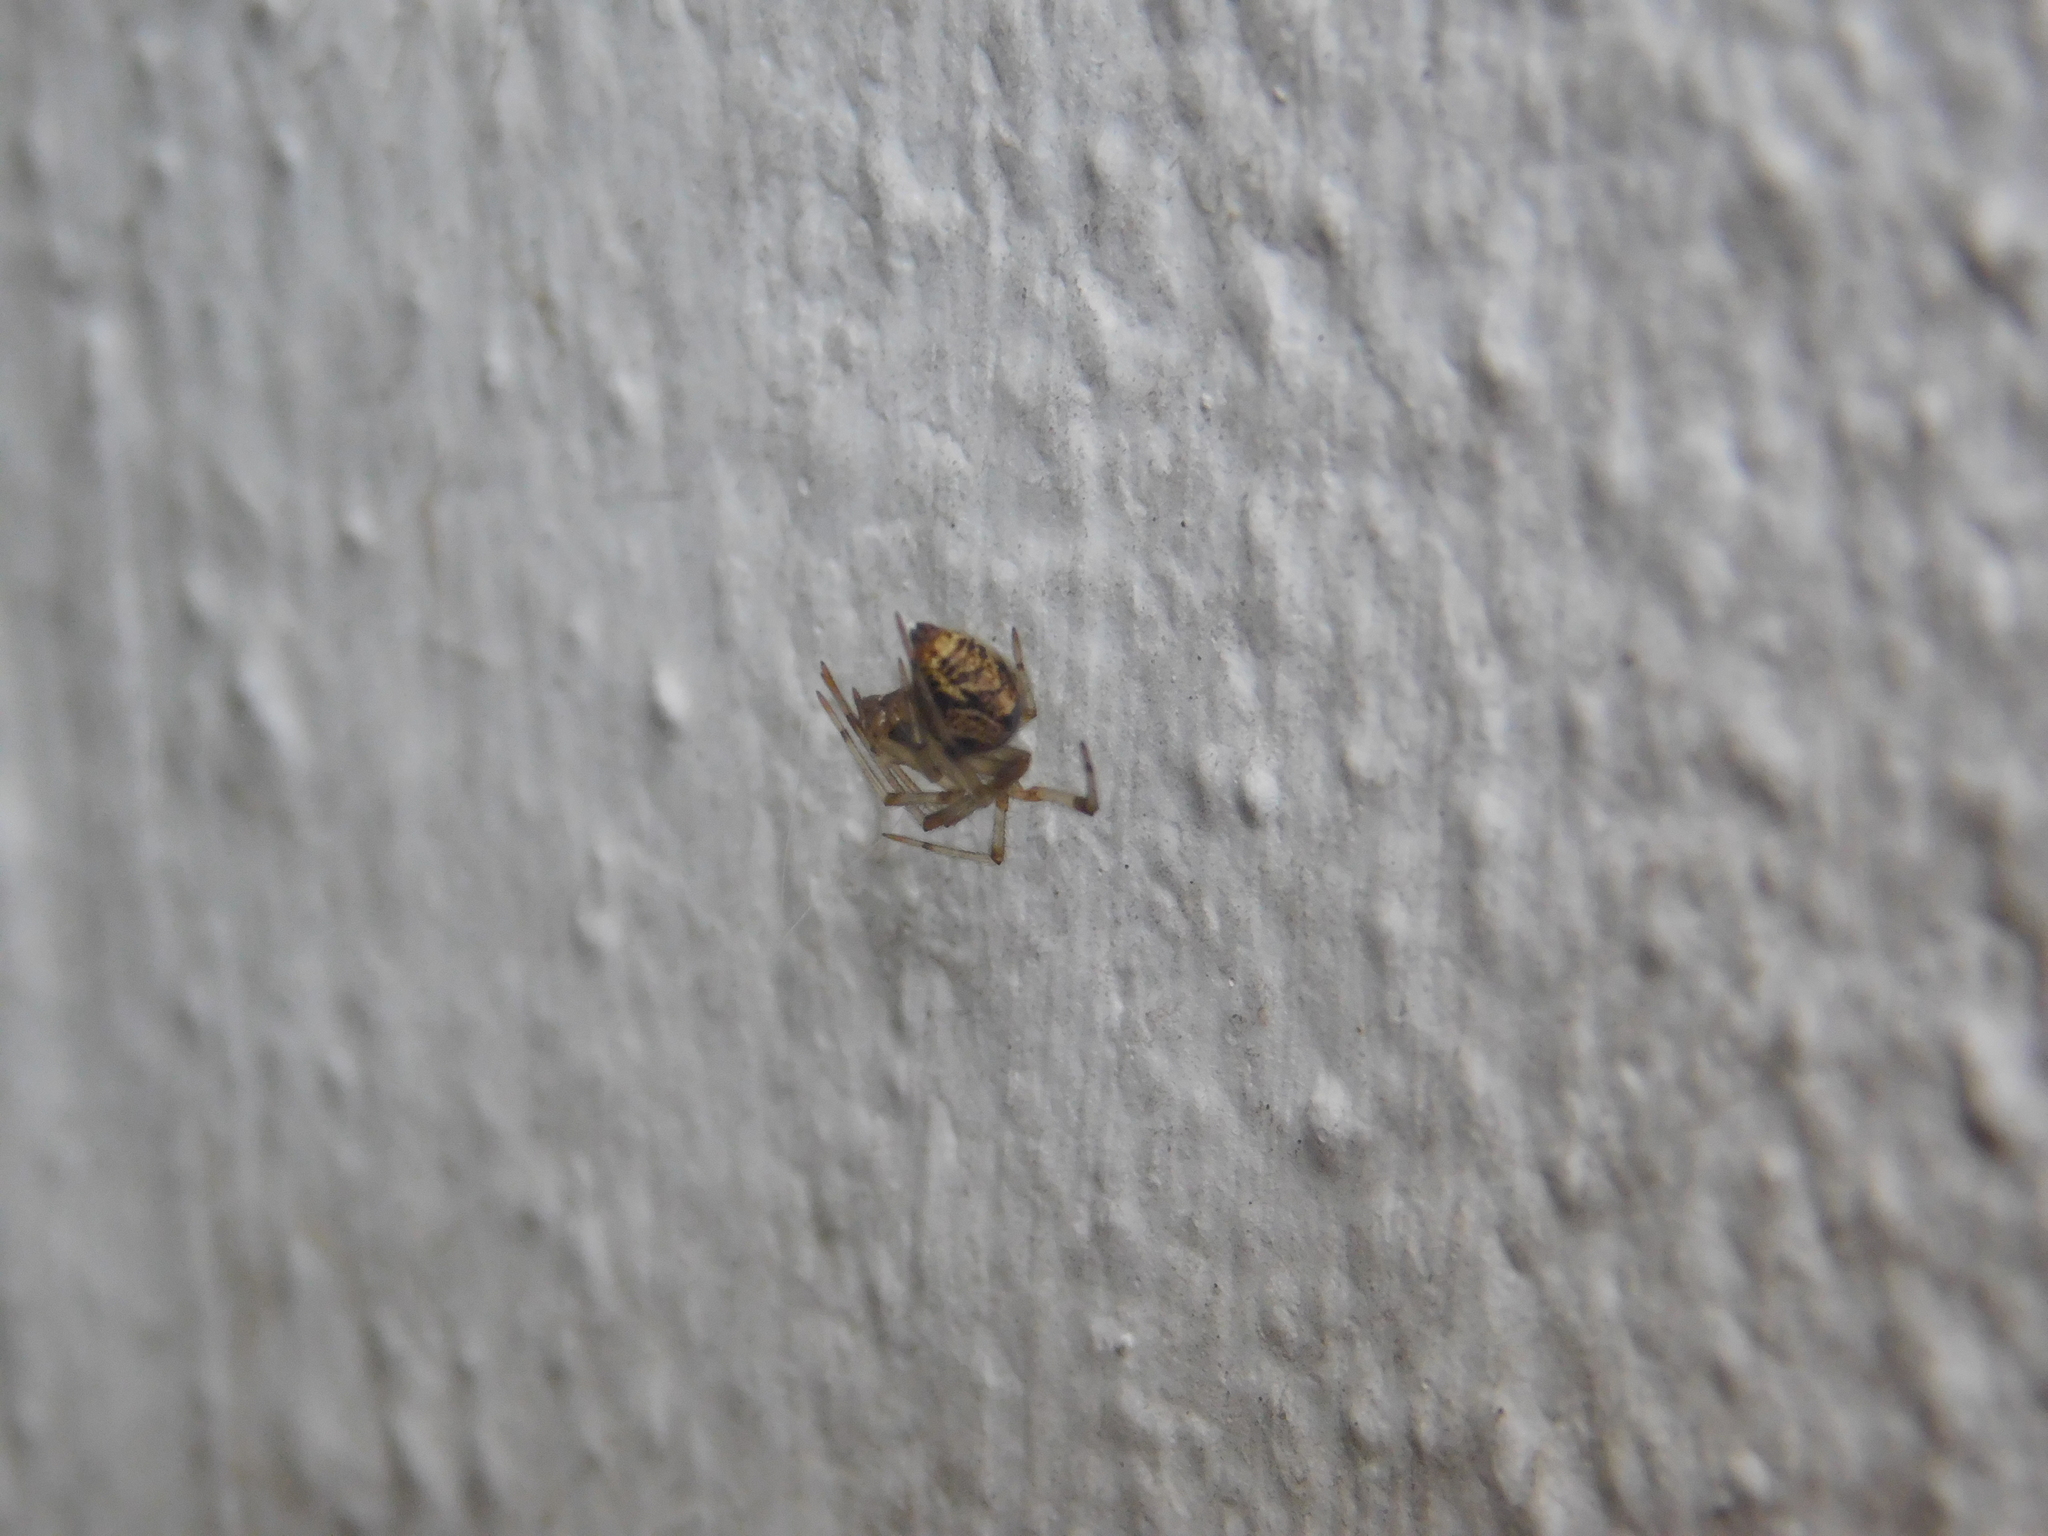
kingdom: Animalia
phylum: Arthropoda
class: Arachnida
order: Araneae
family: Theridiidae
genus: Parasteatoda
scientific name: Parasteatoda tepidariorum
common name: Common house spider
